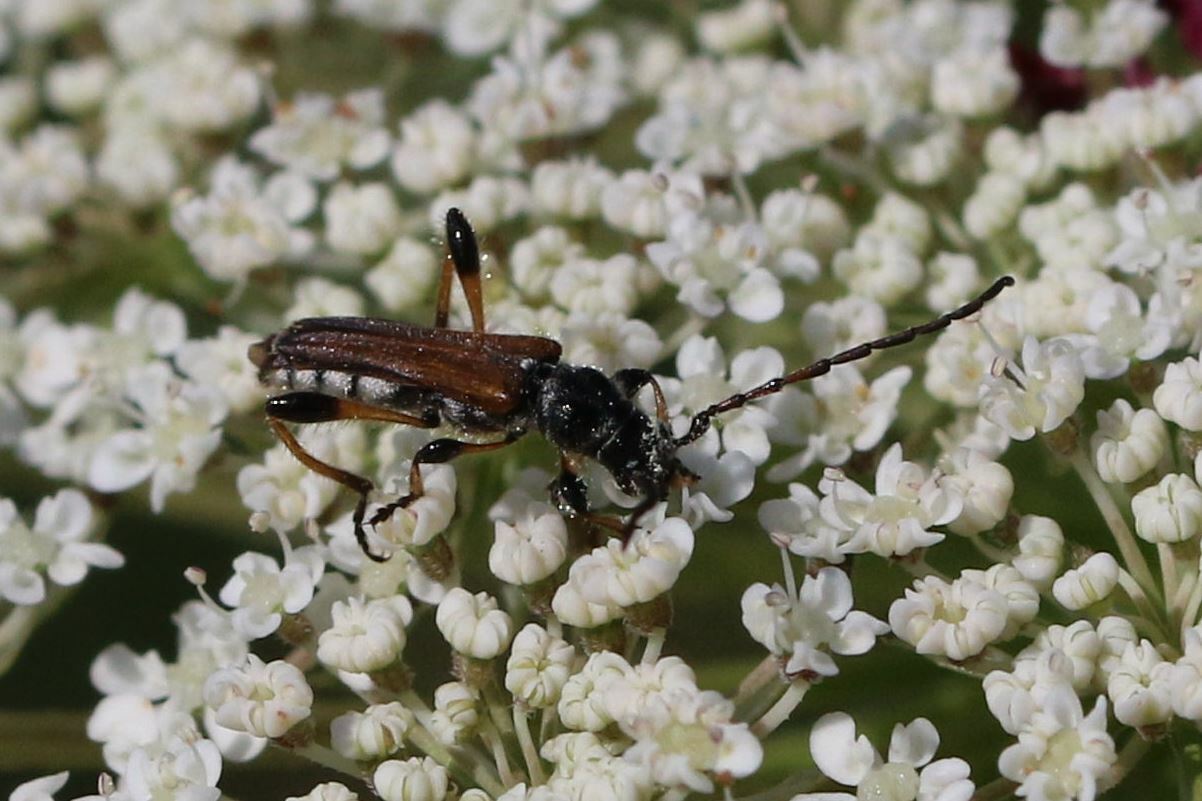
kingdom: Animalia
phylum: Arthropoda
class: Insecta
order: Coleoptera
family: Cerambycidae
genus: Stenopterus
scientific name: Stenopterus ater
